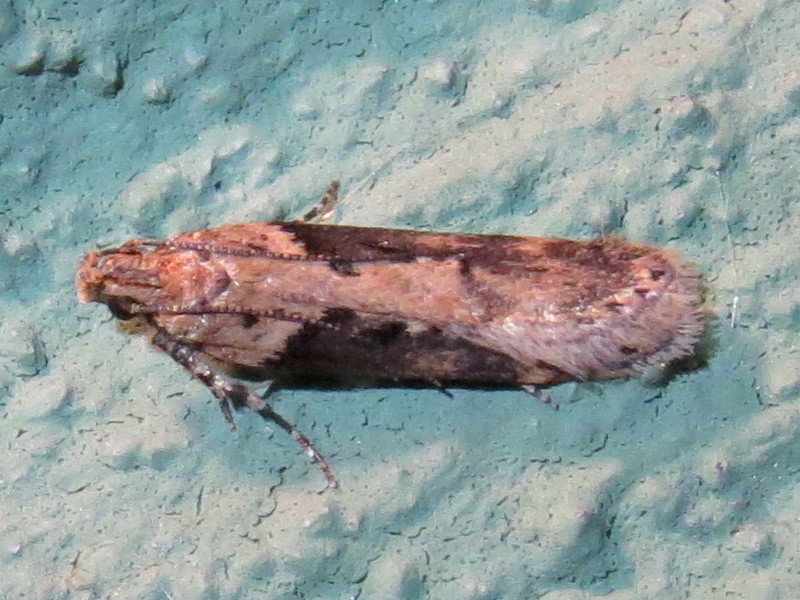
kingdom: Animalia
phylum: Arthropoda
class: Insecta
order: Lepidoptera
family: Gelechiidae
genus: Chionodes
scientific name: Chionodes mediofuscella
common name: Black-smudged chionodes moth
